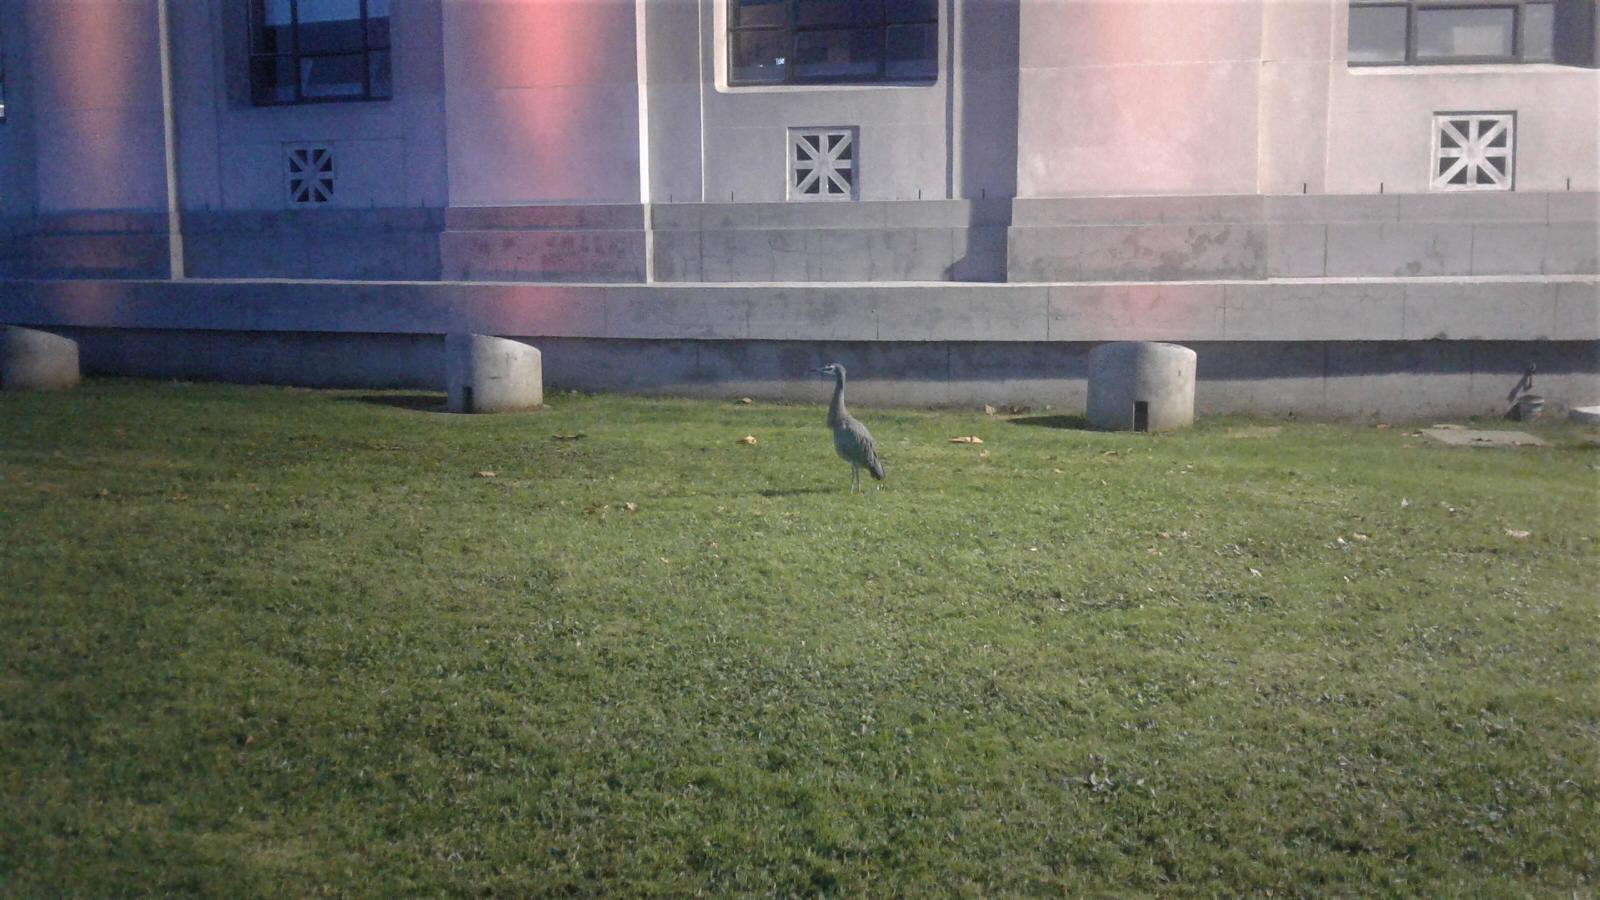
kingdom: Animalia
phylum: Chordata
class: Aves
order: Pelecaniformes
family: Ardeidae
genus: Egretta
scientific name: Egretta novaehollandiae
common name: White-faced heron
